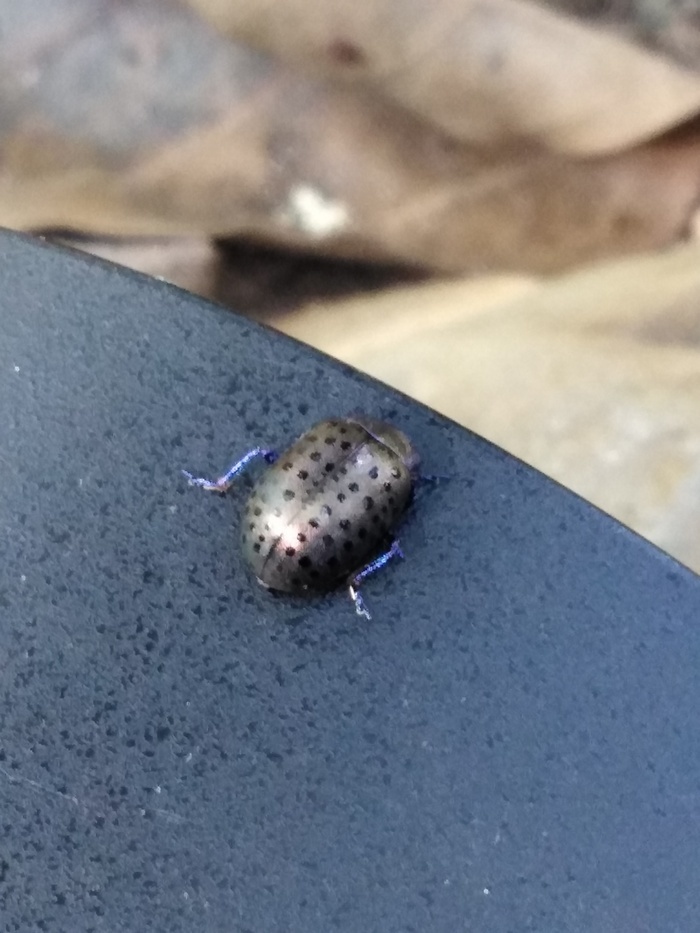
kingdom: Animalia
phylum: Arthropoda
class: Insecta
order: Coleoptera
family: Chrysomelidae
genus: Chrysolina
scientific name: Chrysolina
